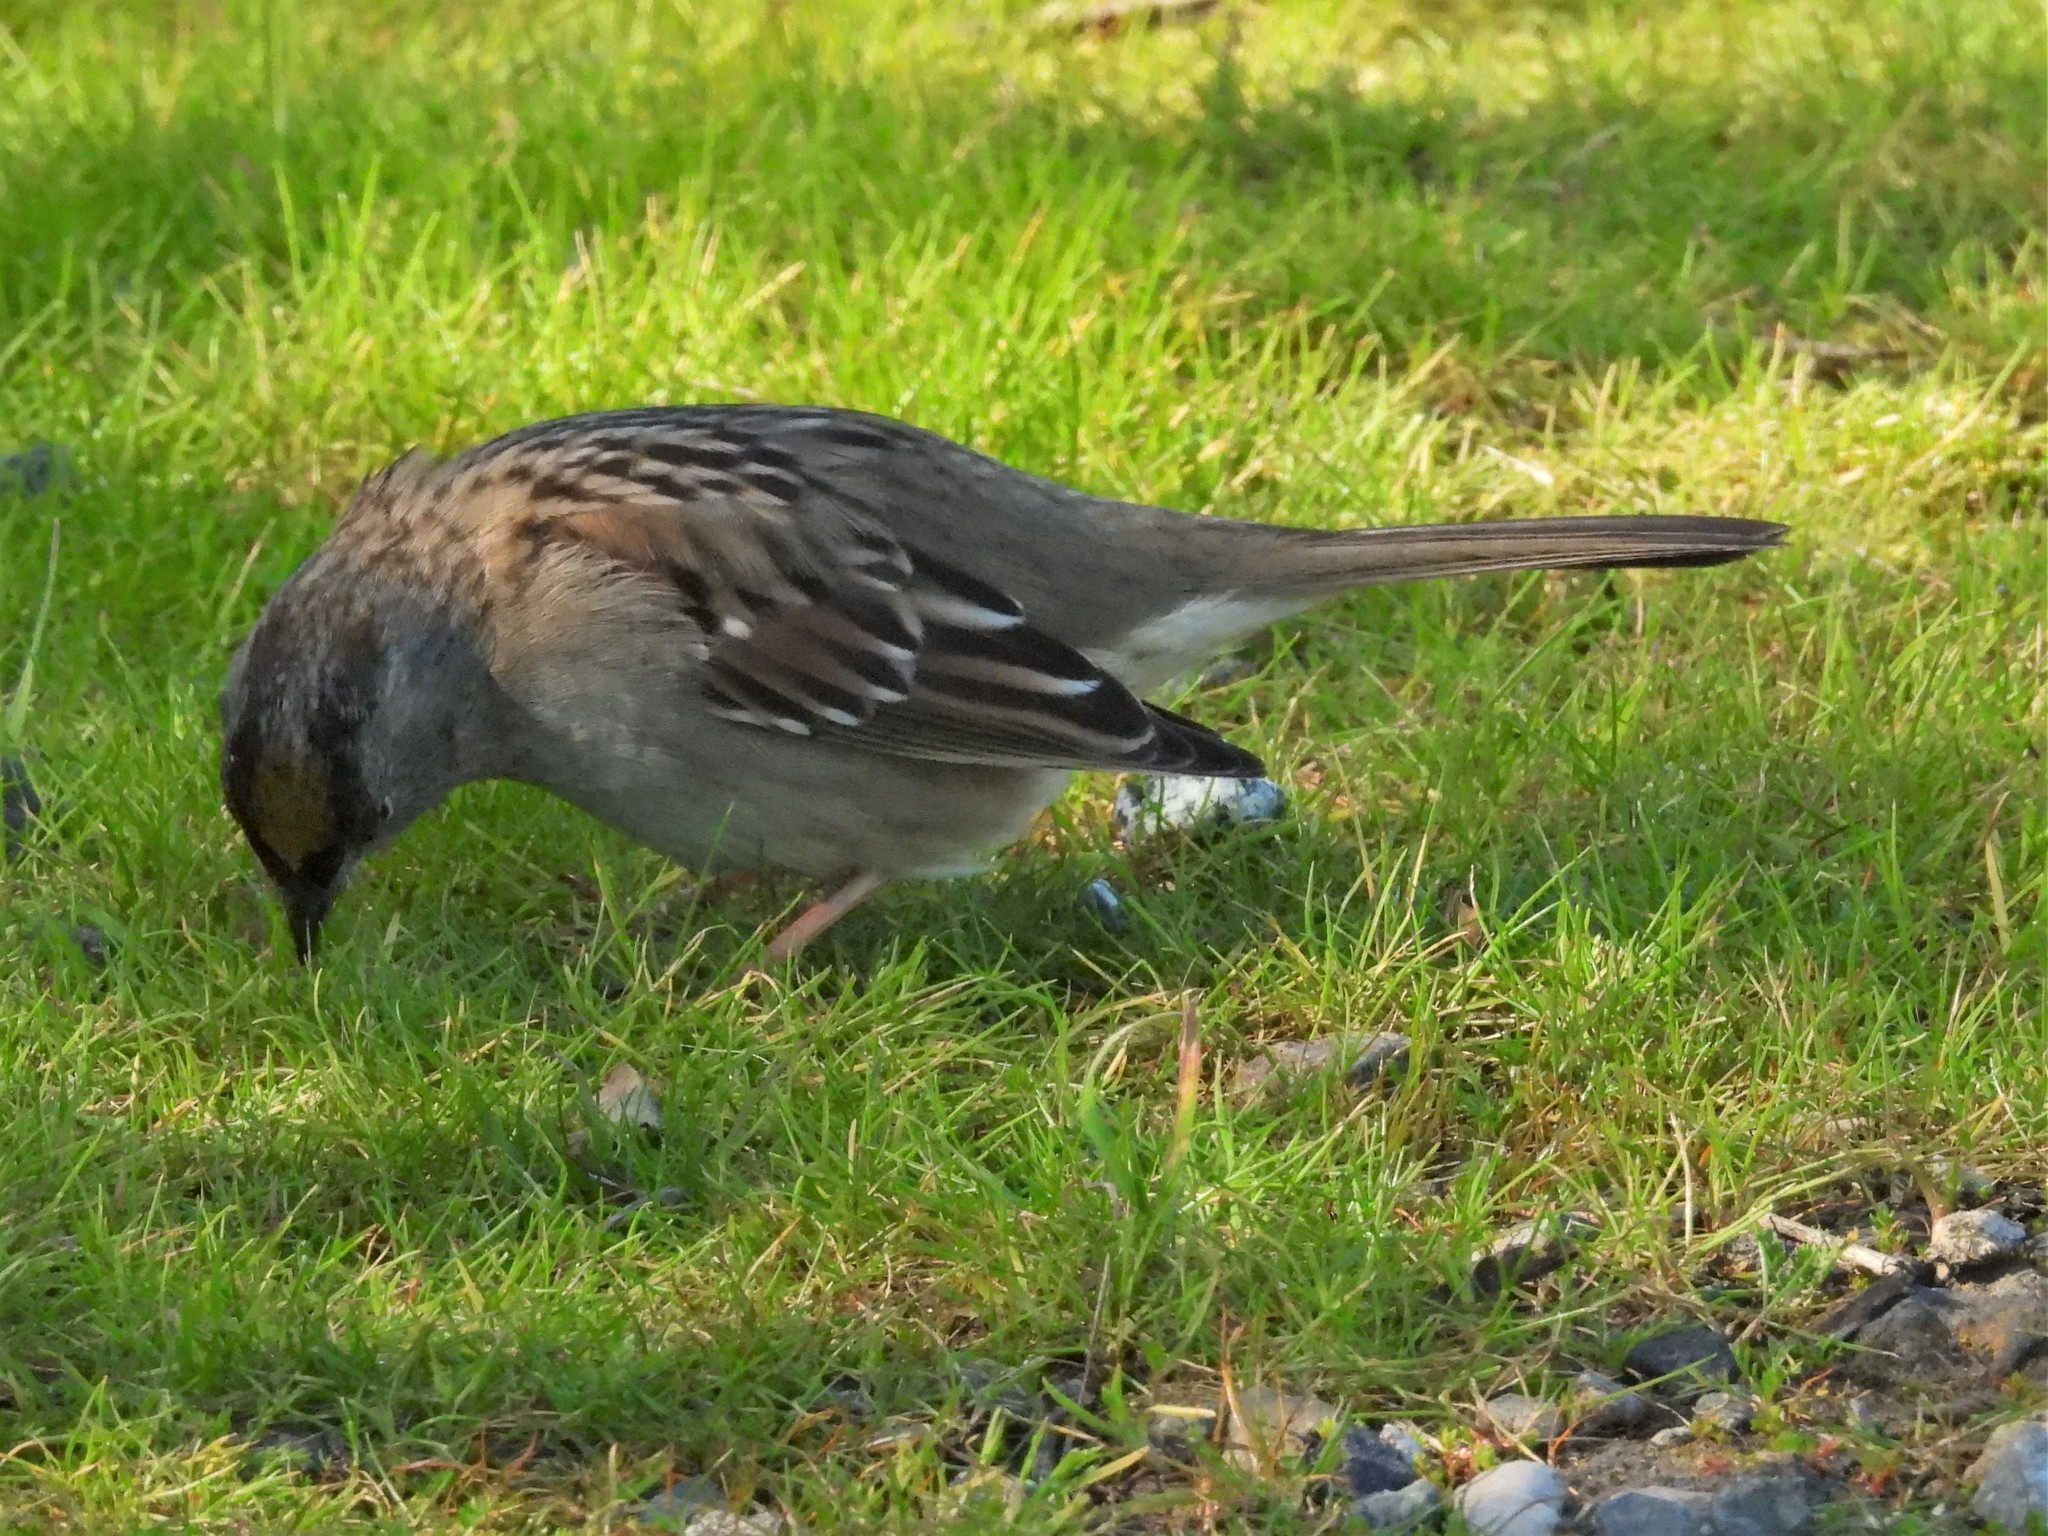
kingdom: Animalia
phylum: Chordata
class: Aves
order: Passeriformes
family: Passerellidae
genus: Zonotrichia
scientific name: Zonotrichia atricapilla
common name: Golden-crowned sparrow
